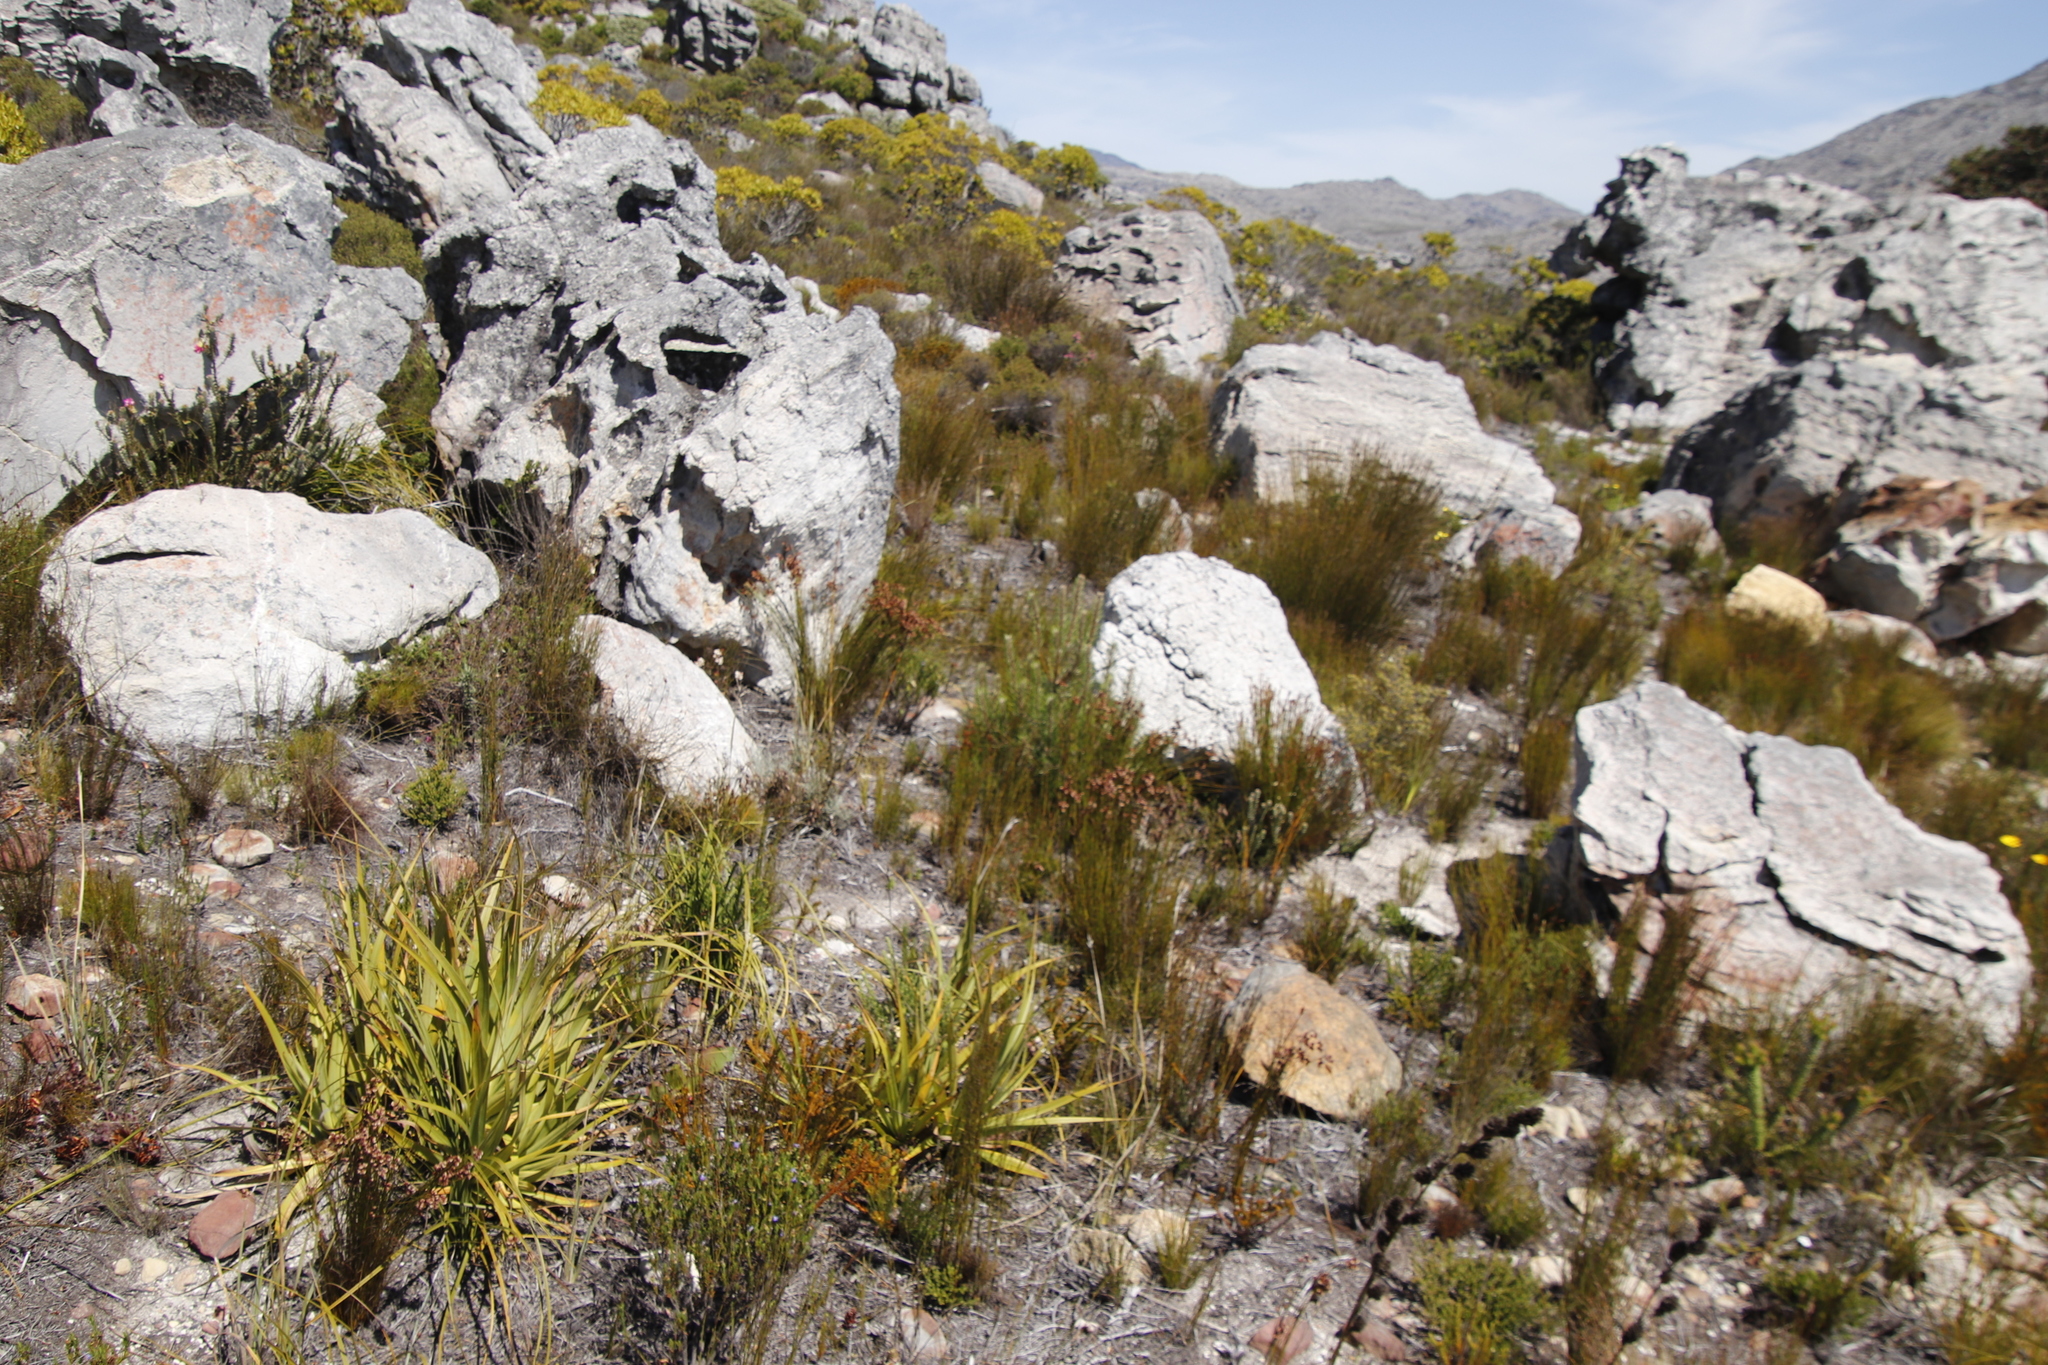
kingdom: Plantae
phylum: Tracheophyta
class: Liliopsida
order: Poales
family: Cyperaceae
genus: Tetraria
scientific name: Tetraria thermalis
